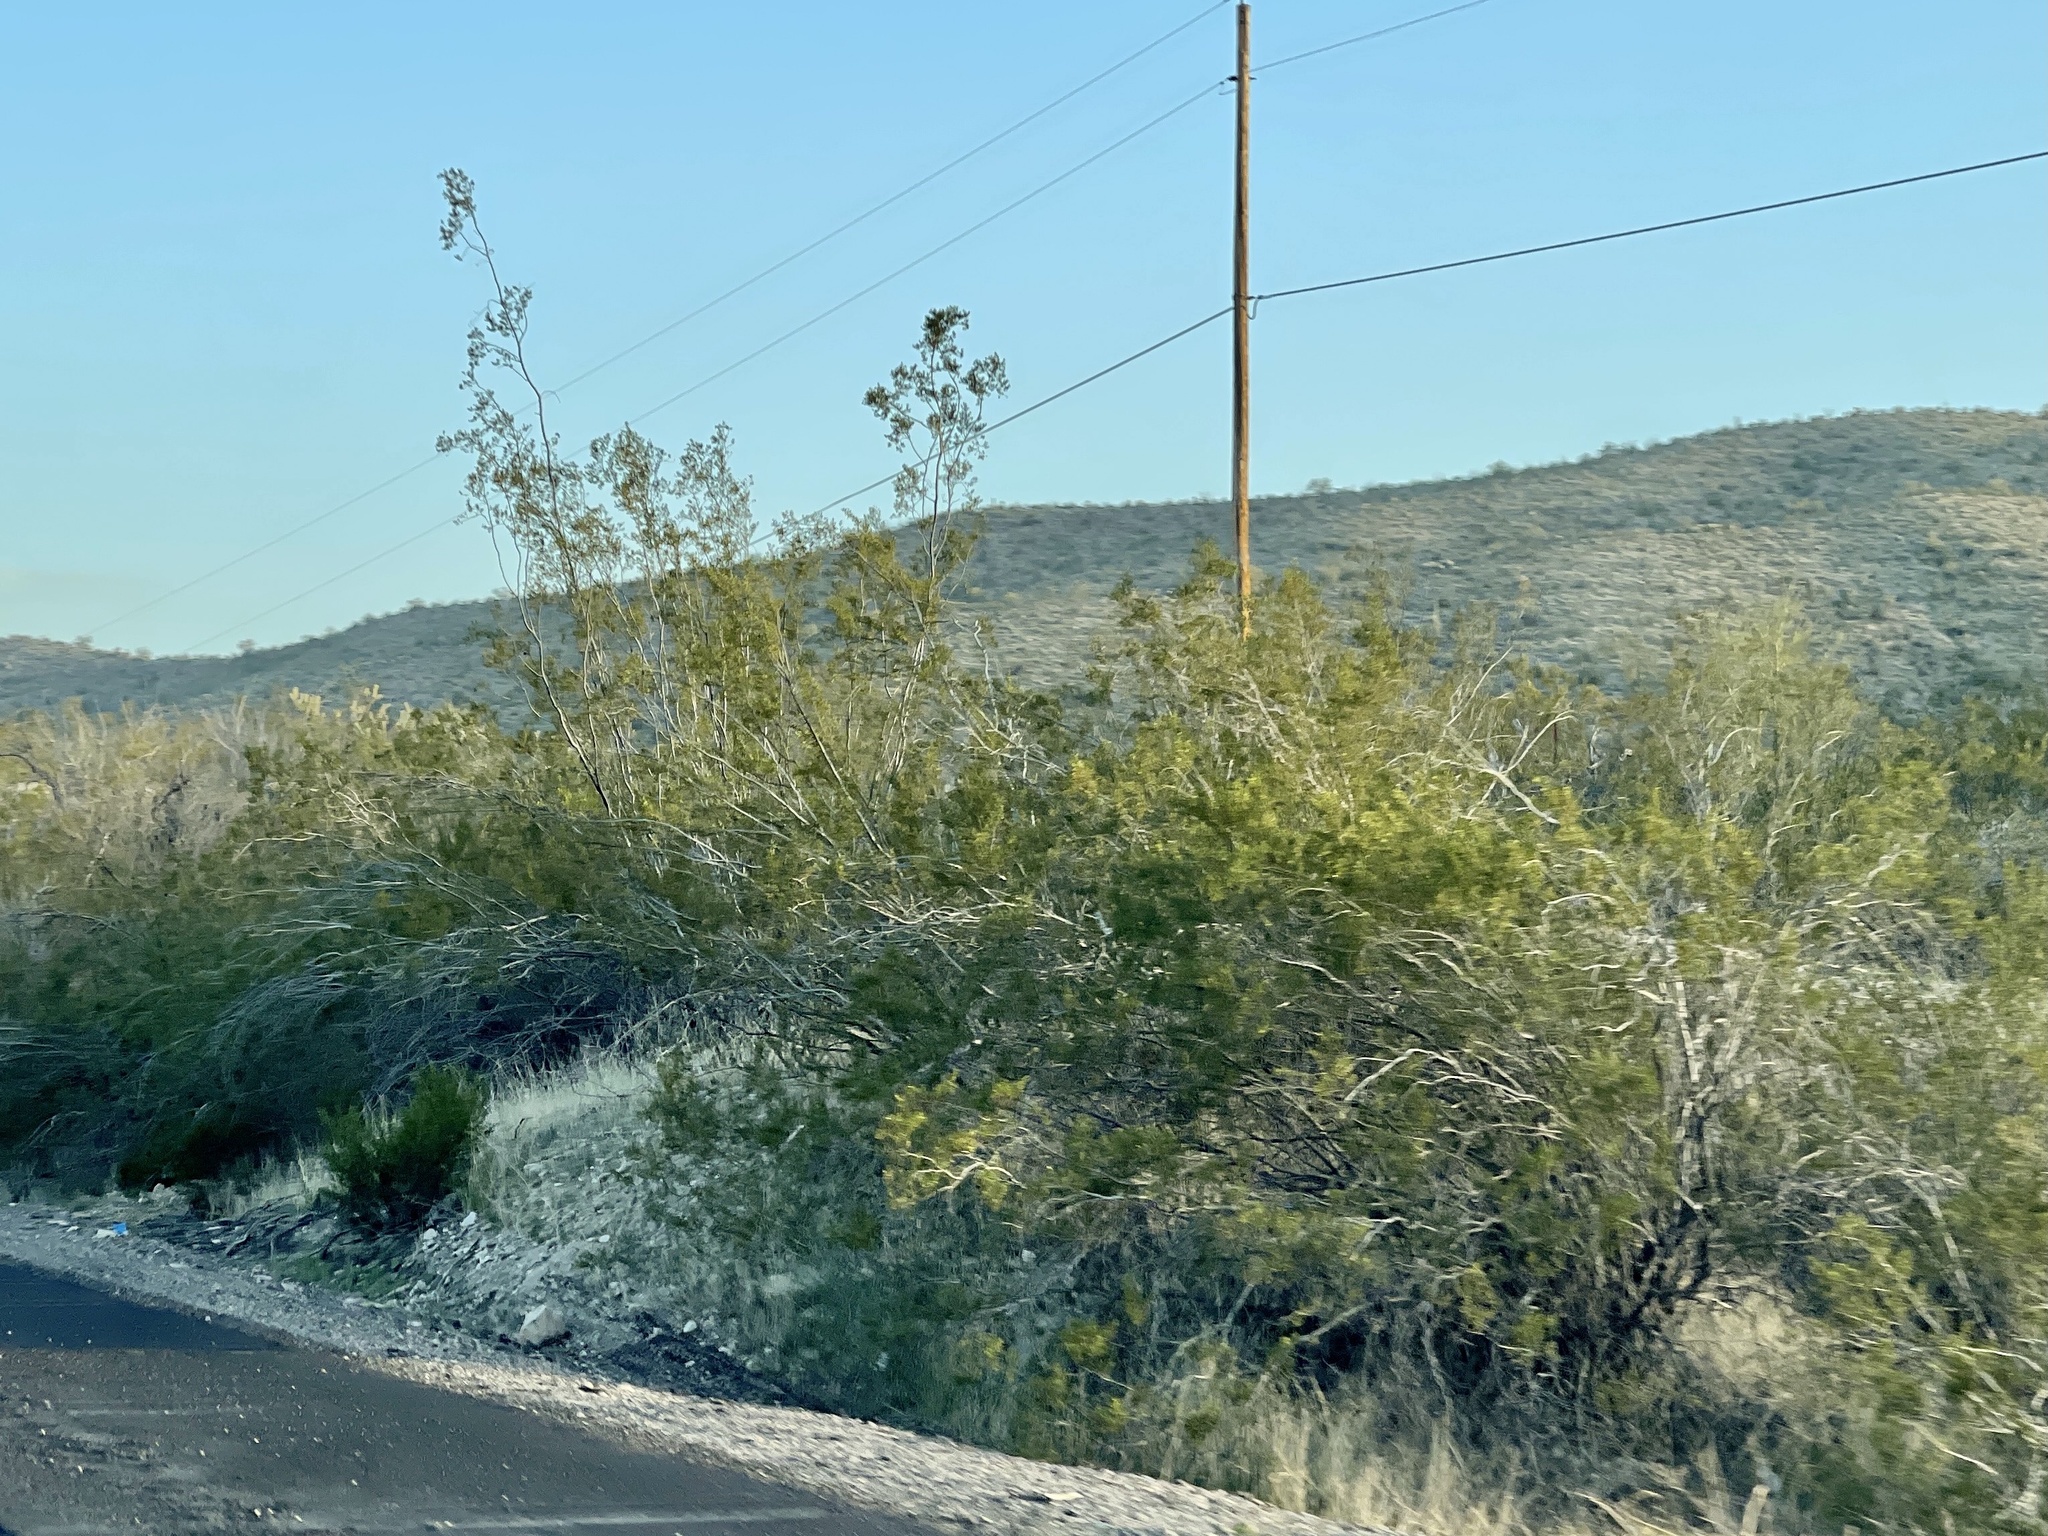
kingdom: Plantae
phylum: Tracheophyta
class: Magnoliopsida
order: Zygophyllales
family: Zygophyllaceae
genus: Larrea
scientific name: Larrea tridentata
